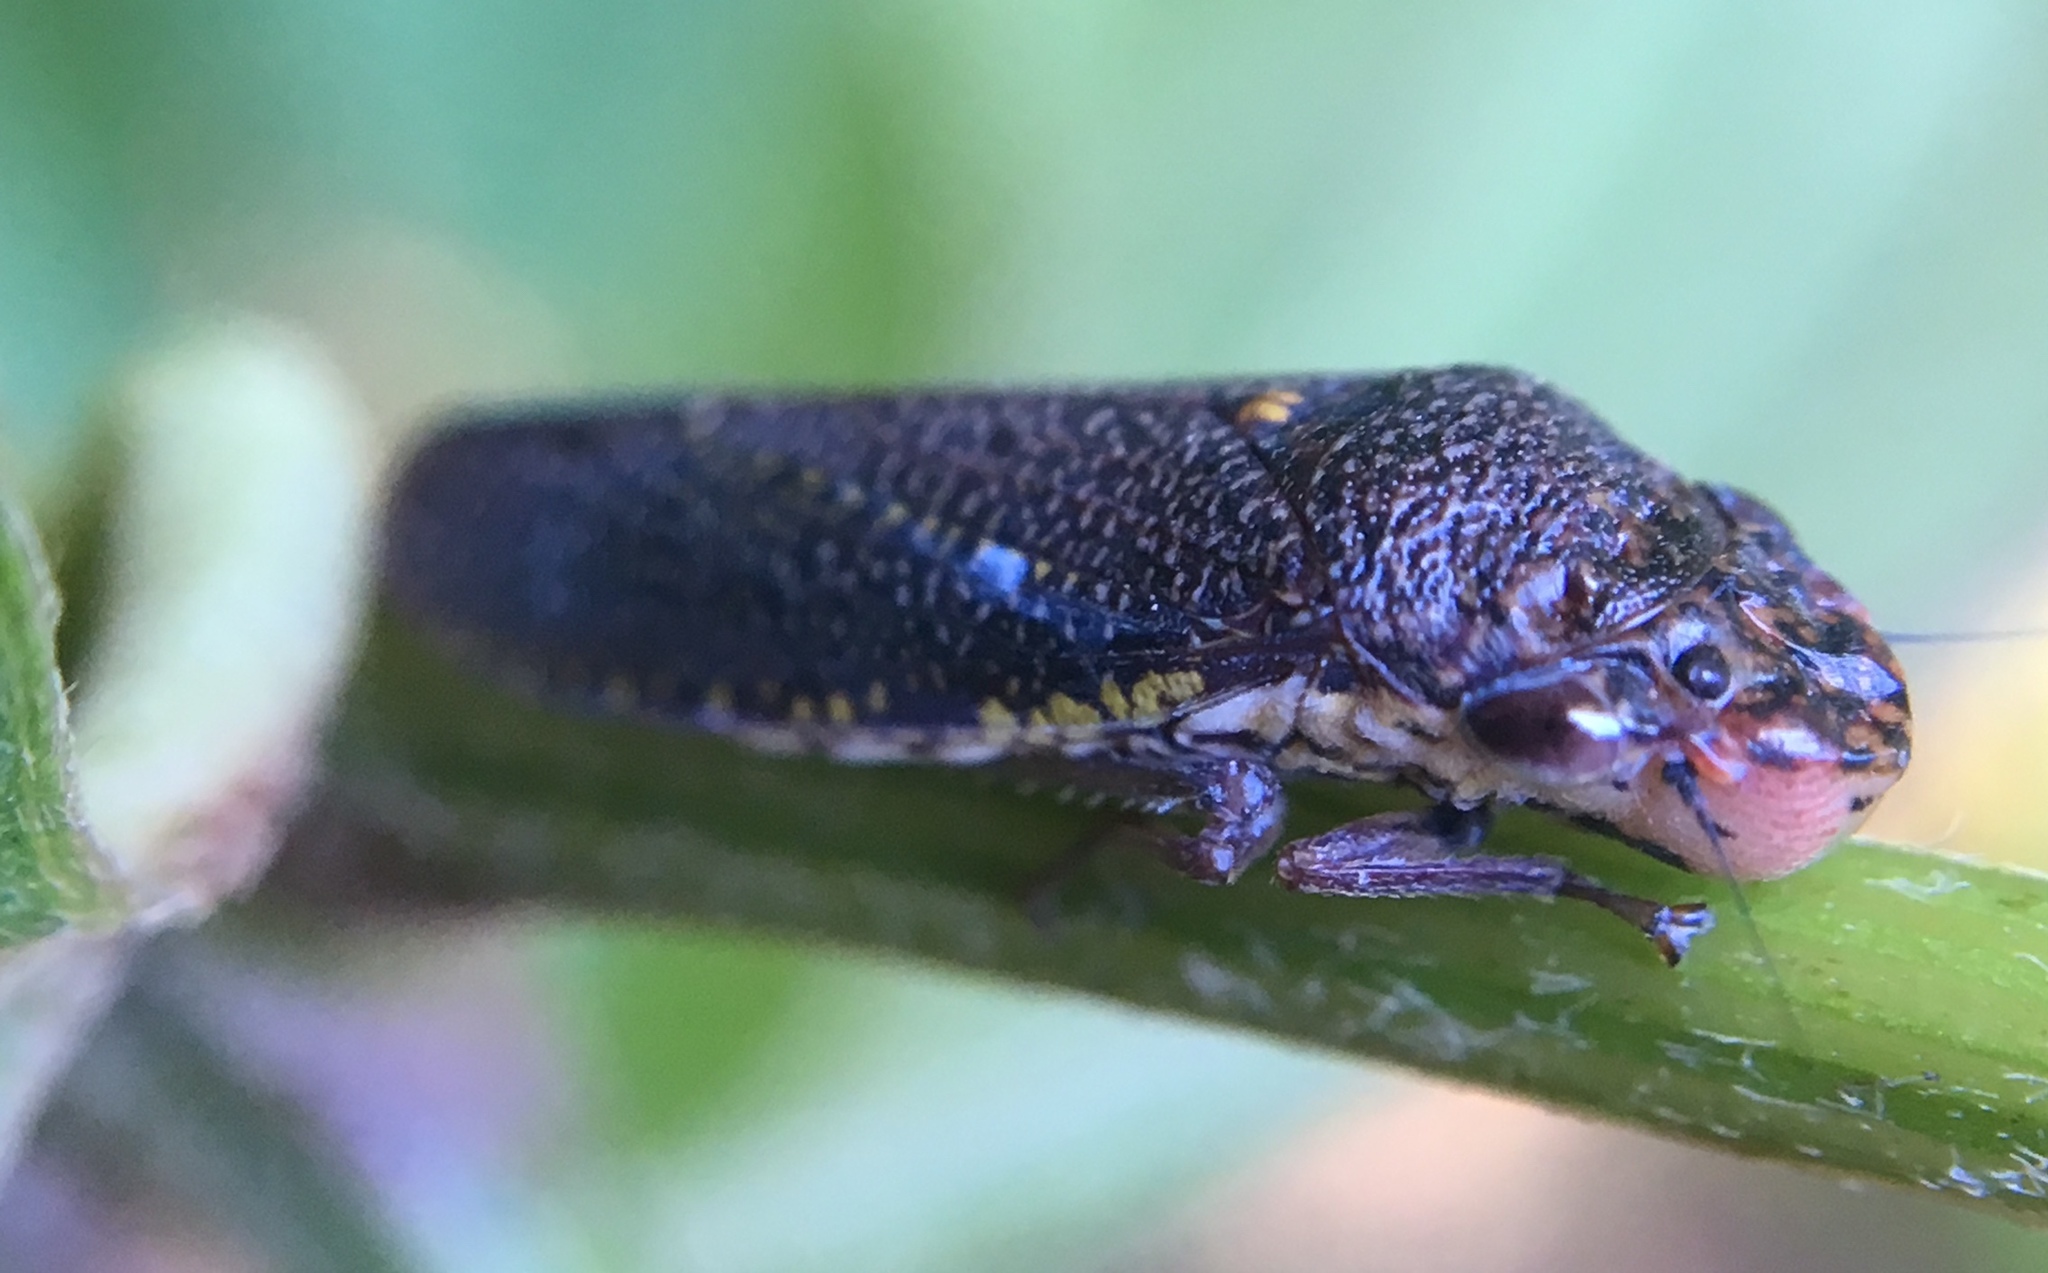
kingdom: Animalia
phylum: Arthropoda
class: Insecta
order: Hemiptera
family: Cicadellidae
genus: Paraulacizes
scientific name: Paraulacizes irrorata
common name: Speckled sharpshooter
